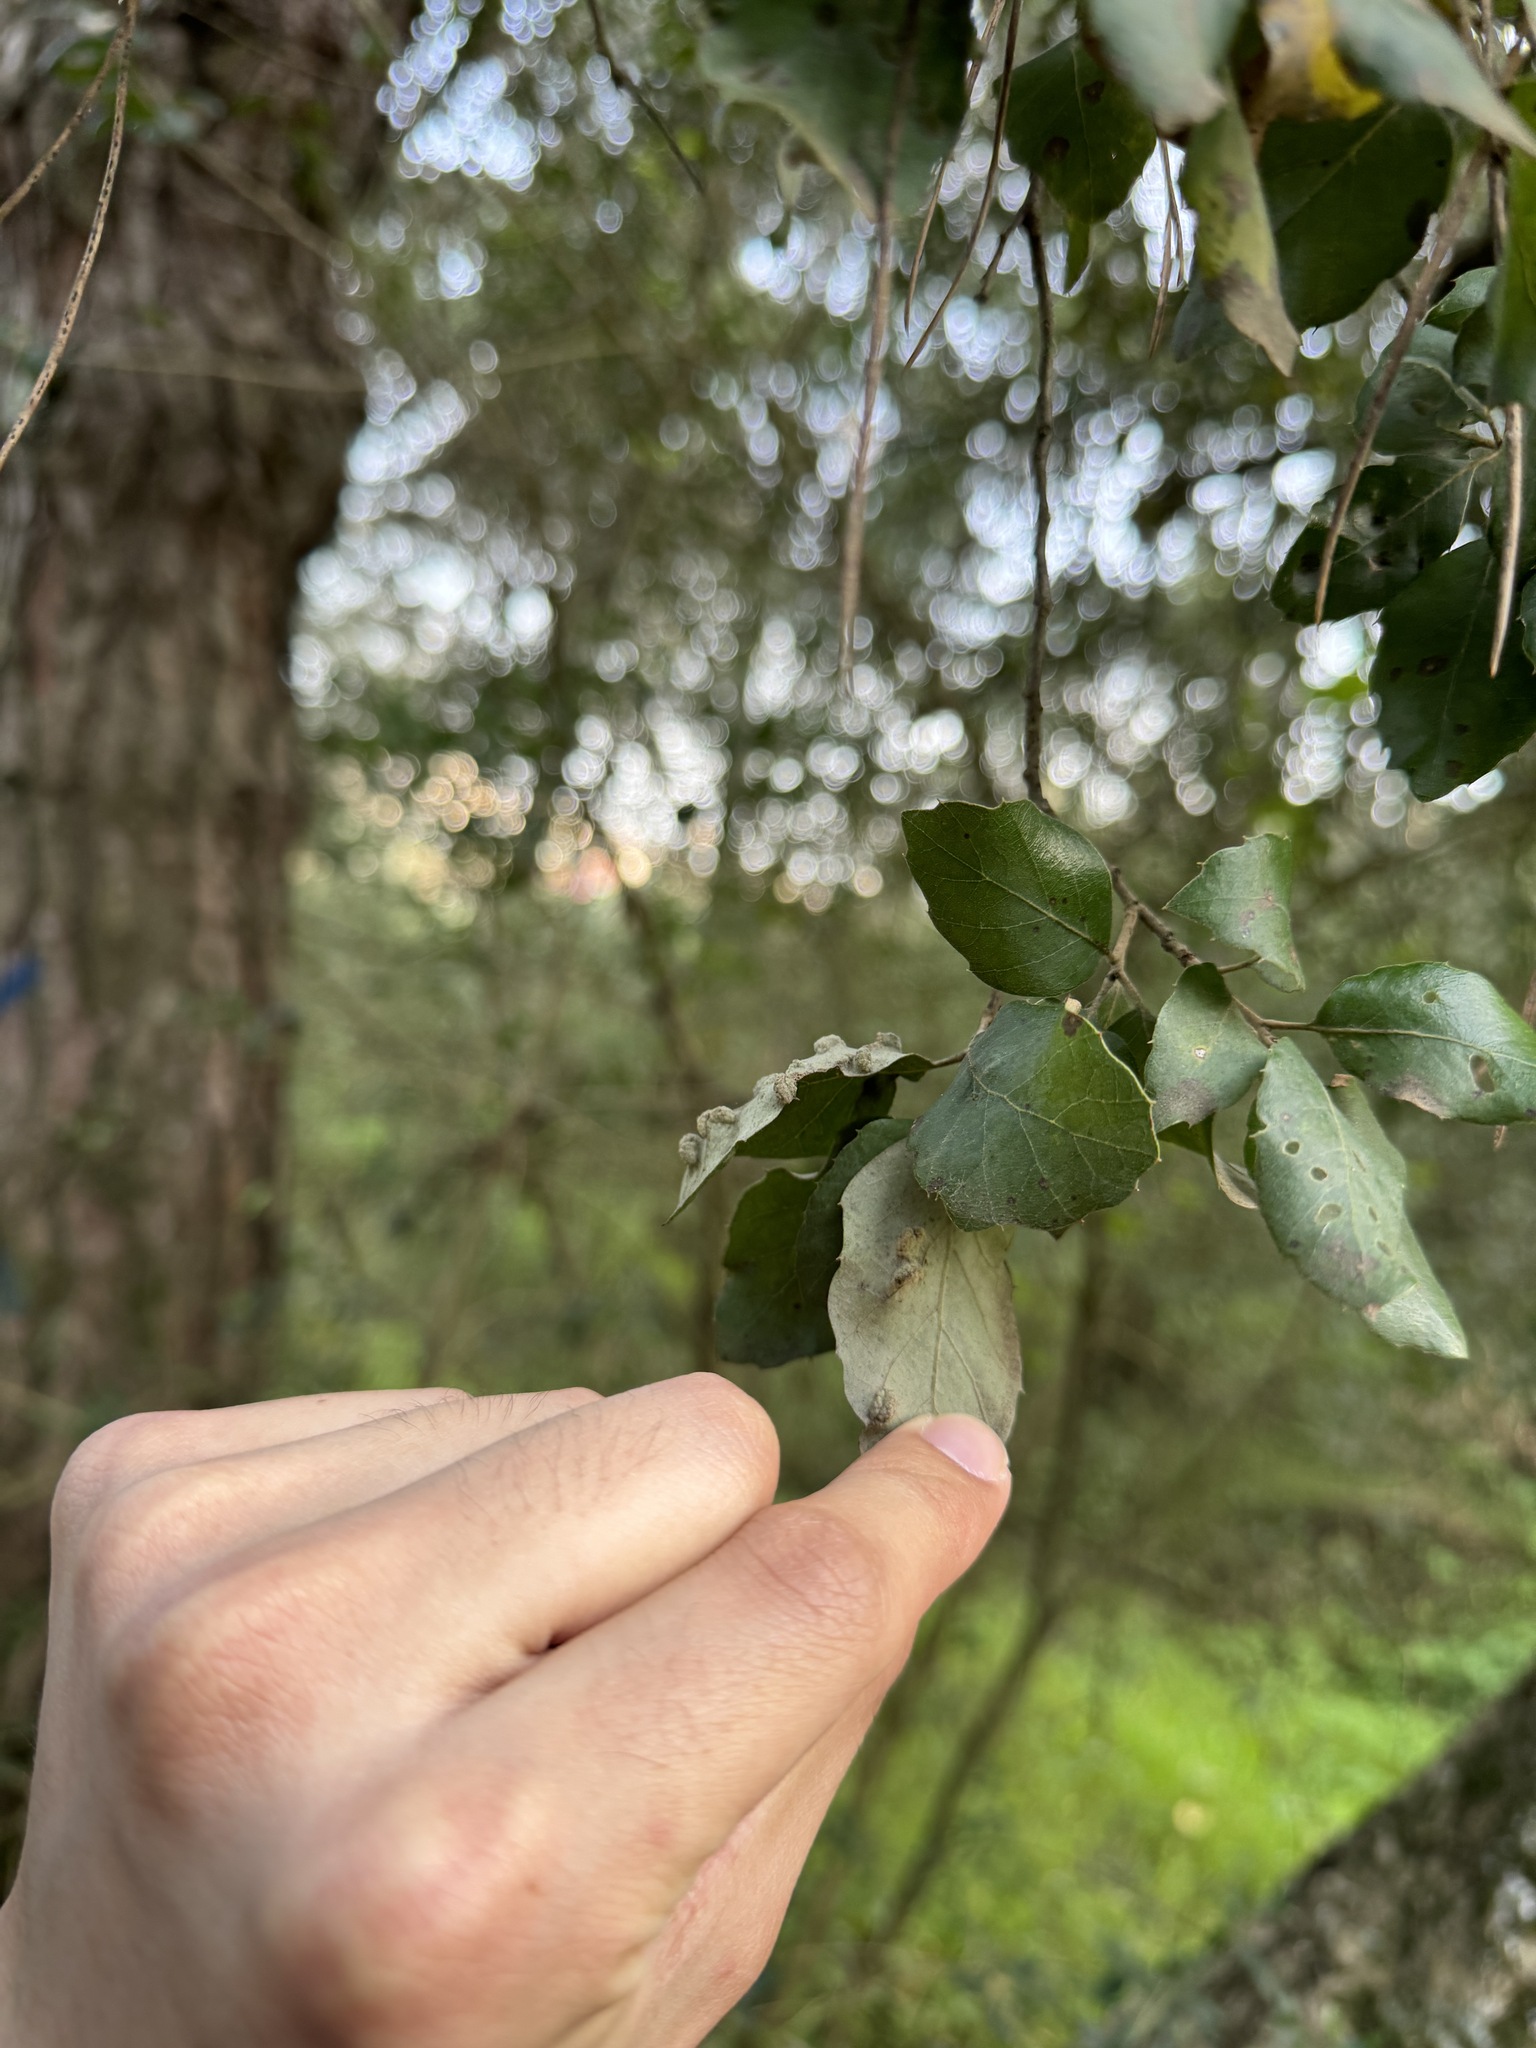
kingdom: Plantae
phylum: Tracheophyta
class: Magnoliopsida
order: Fagales
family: Fagaceae
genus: Quercus
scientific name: Quercus suber
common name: Cork oak
